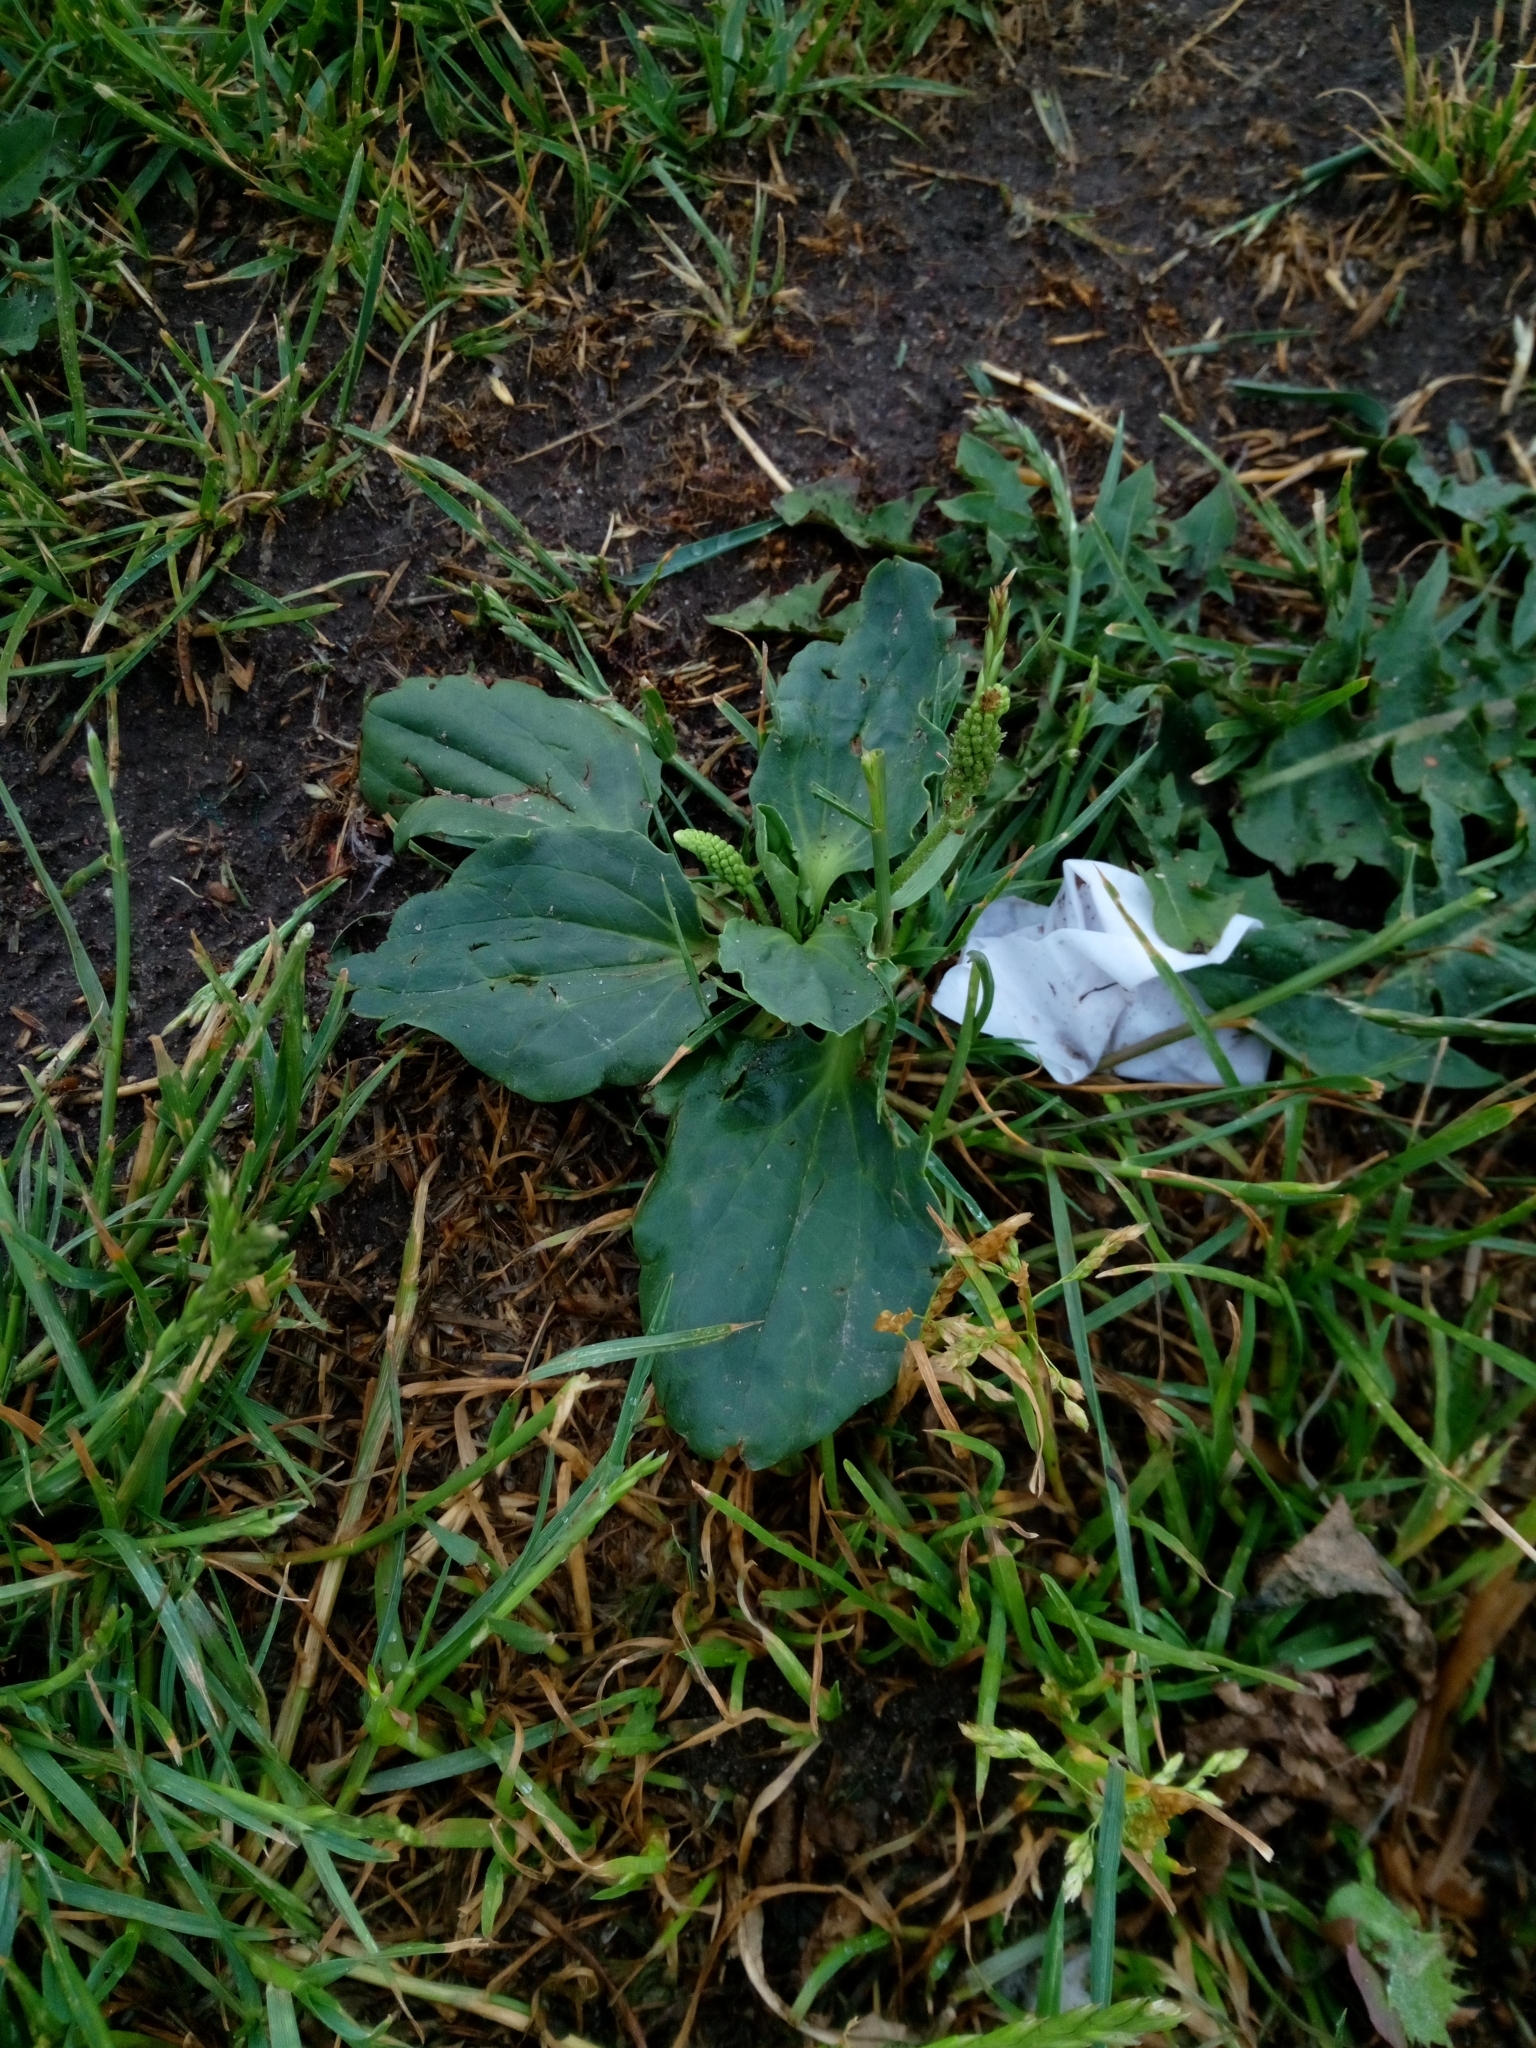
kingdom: Plantae
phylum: Tracheophyta
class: Magnoliopsida
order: Lamiales
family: Plantaginaceae
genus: Plantago
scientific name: Plantago major
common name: Common plantain
